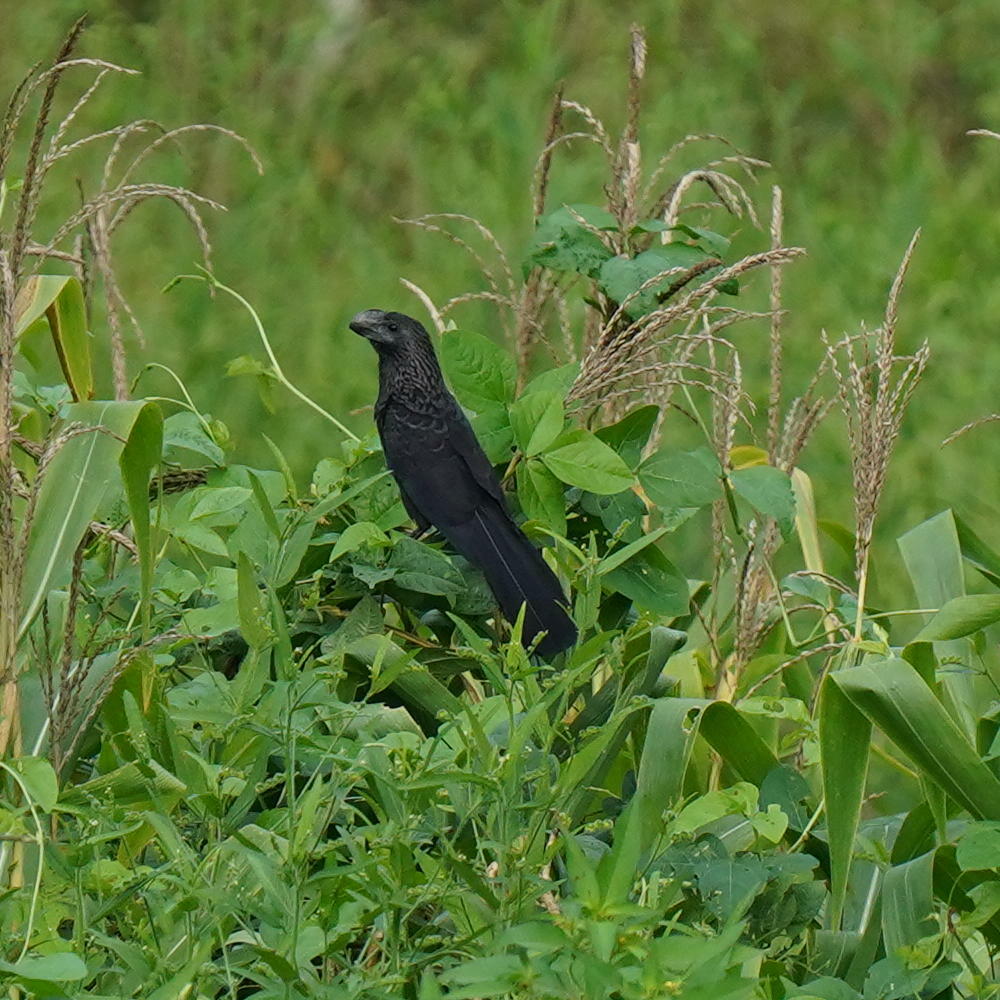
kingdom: Animalia
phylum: Chordata
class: Aves
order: Cuculiformes
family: Cuculidae
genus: Crotophaga
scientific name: Crotophaga ani
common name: Smooth-billed ani
